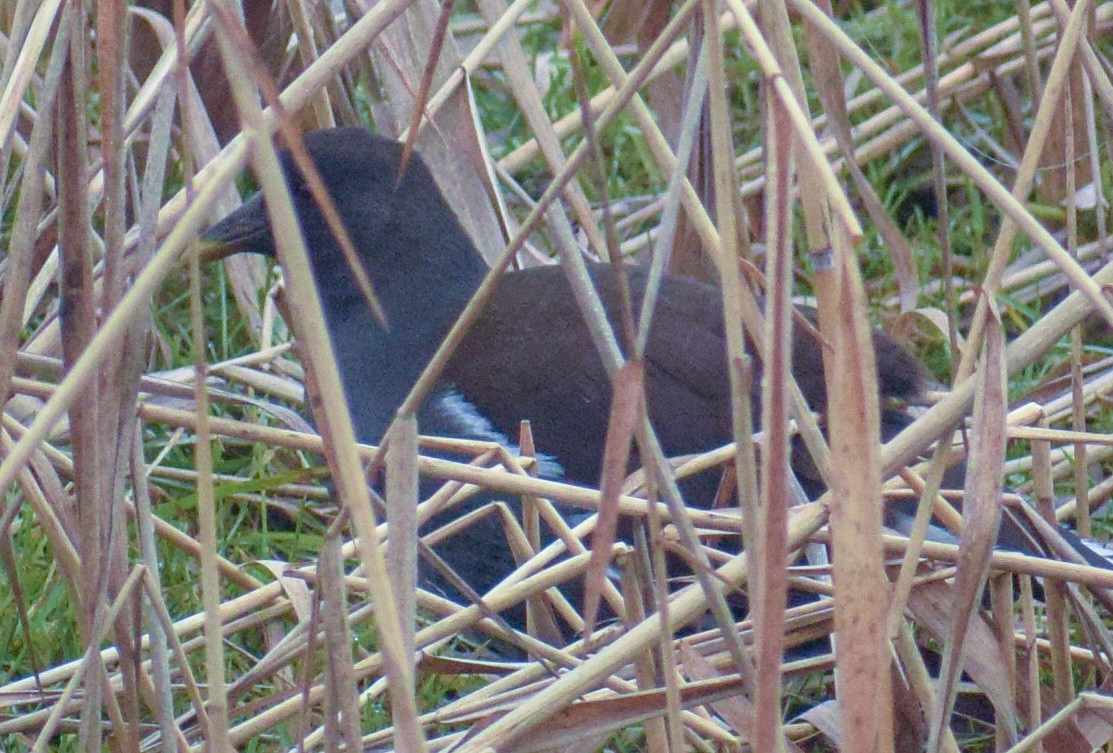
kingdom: Animalia
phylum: Chordata
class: Aves
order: Gruiformes
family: Rallidae
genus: Gallinula
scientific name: Gallinula chloropus
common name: Common moorhen
